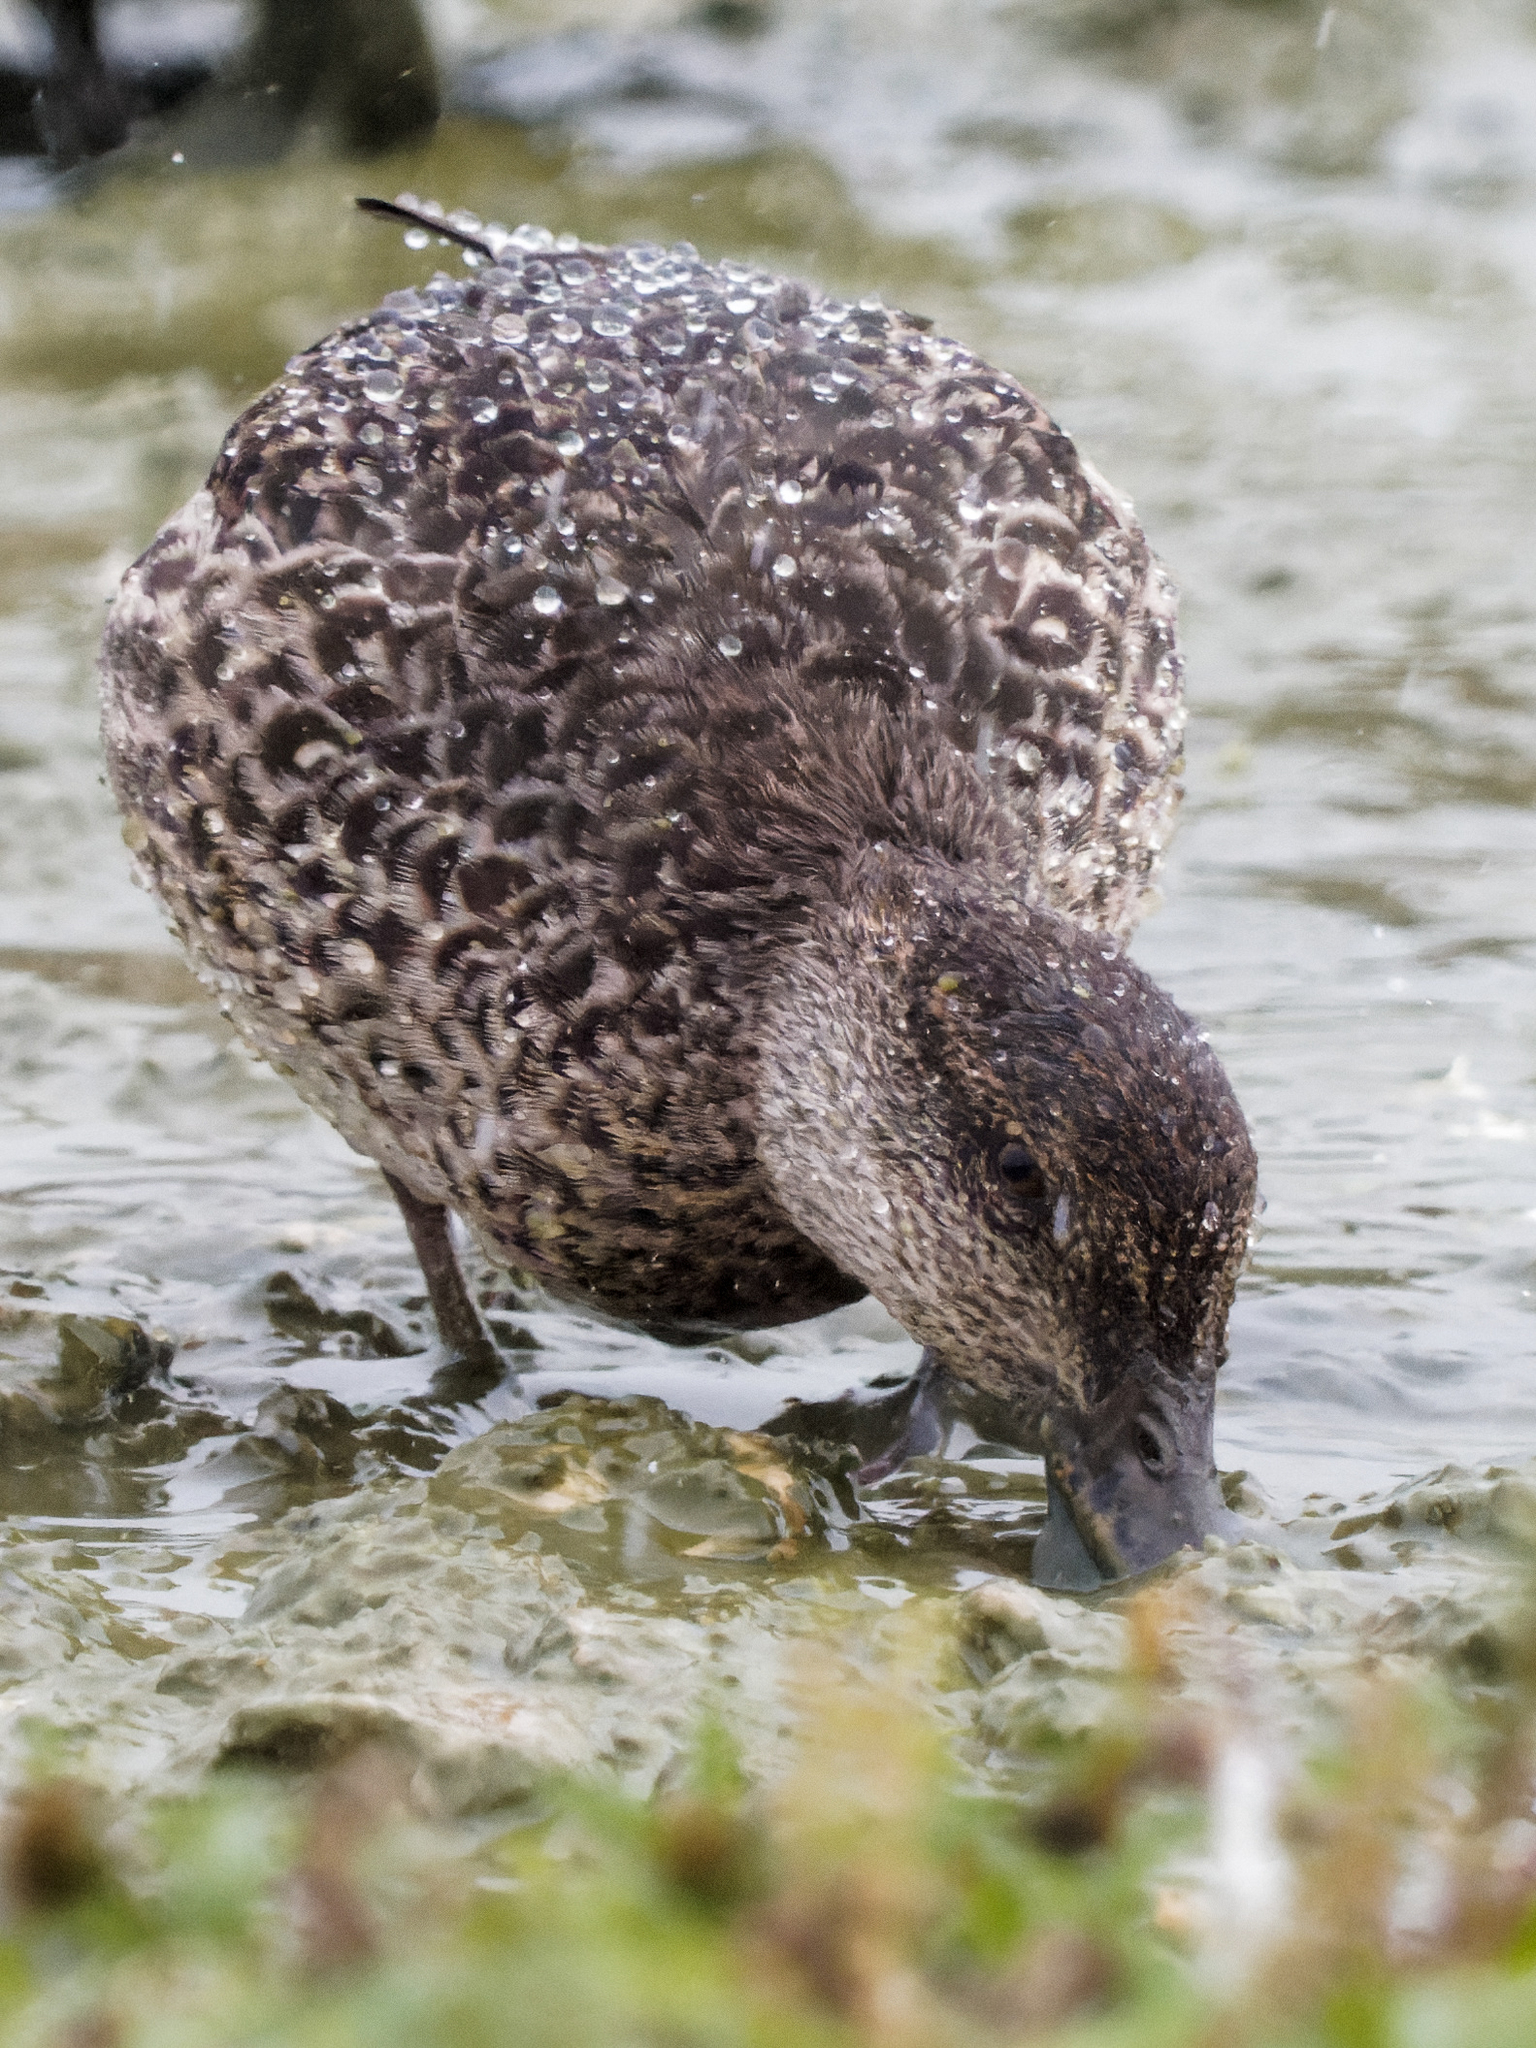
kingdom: Animalia
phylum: Chordata
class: Aves
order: Anseriformes
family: Anatidae
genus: Anas
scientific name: Anas crecca
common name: Eurasian teal
